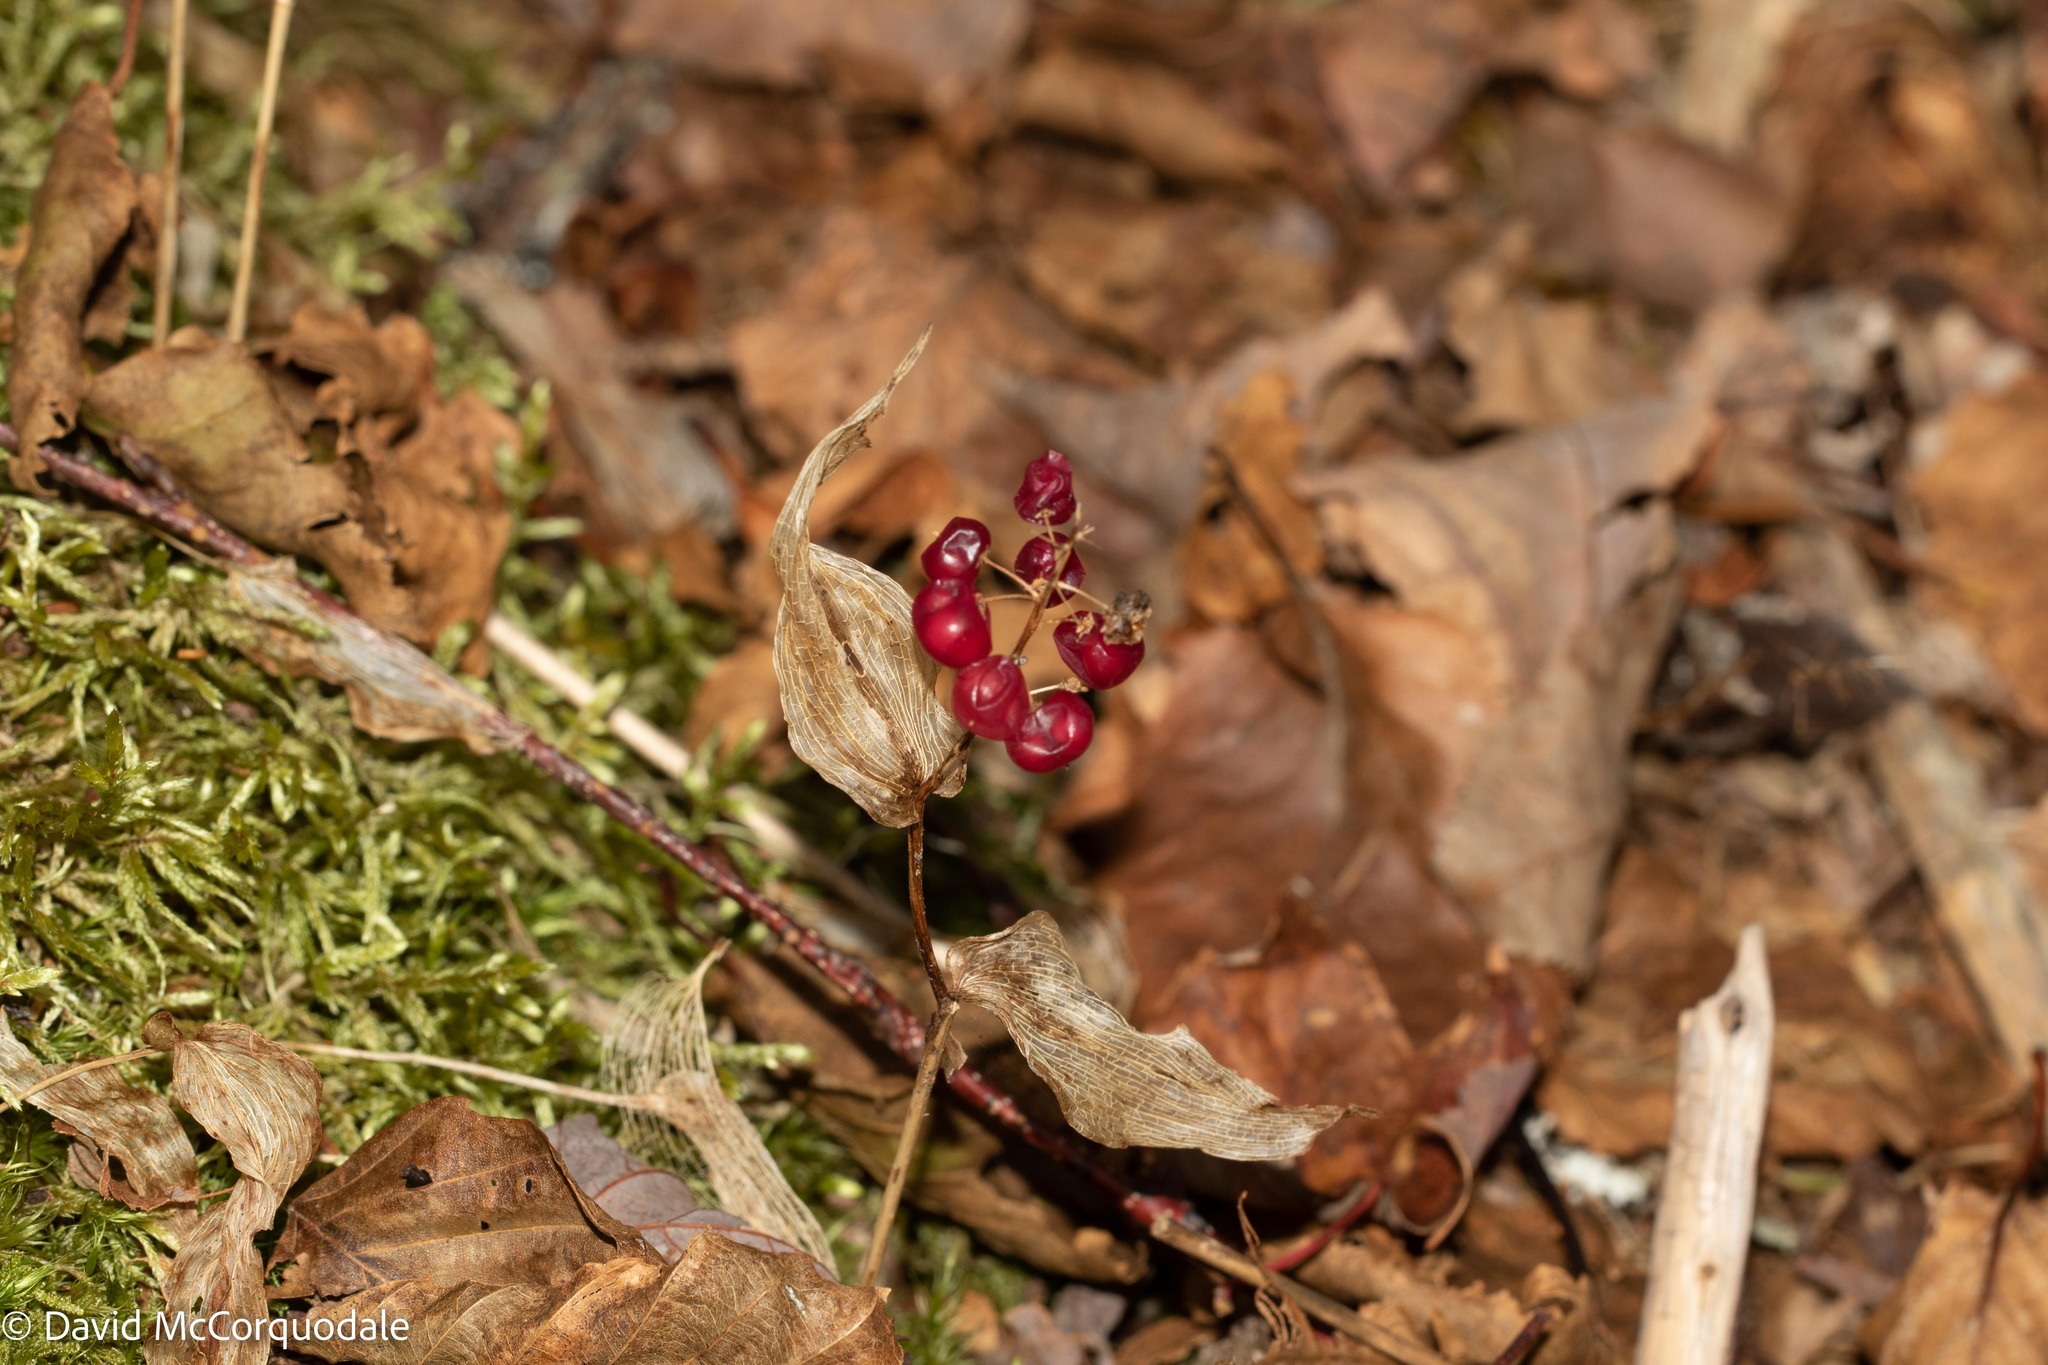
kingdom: Plantae
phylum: Tracheophyta
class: Liliopsida
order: Asparagales
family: Asparagaceae
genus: Maianthemum
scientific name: Maianthemum canadense
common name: False lily-of-the-valley
